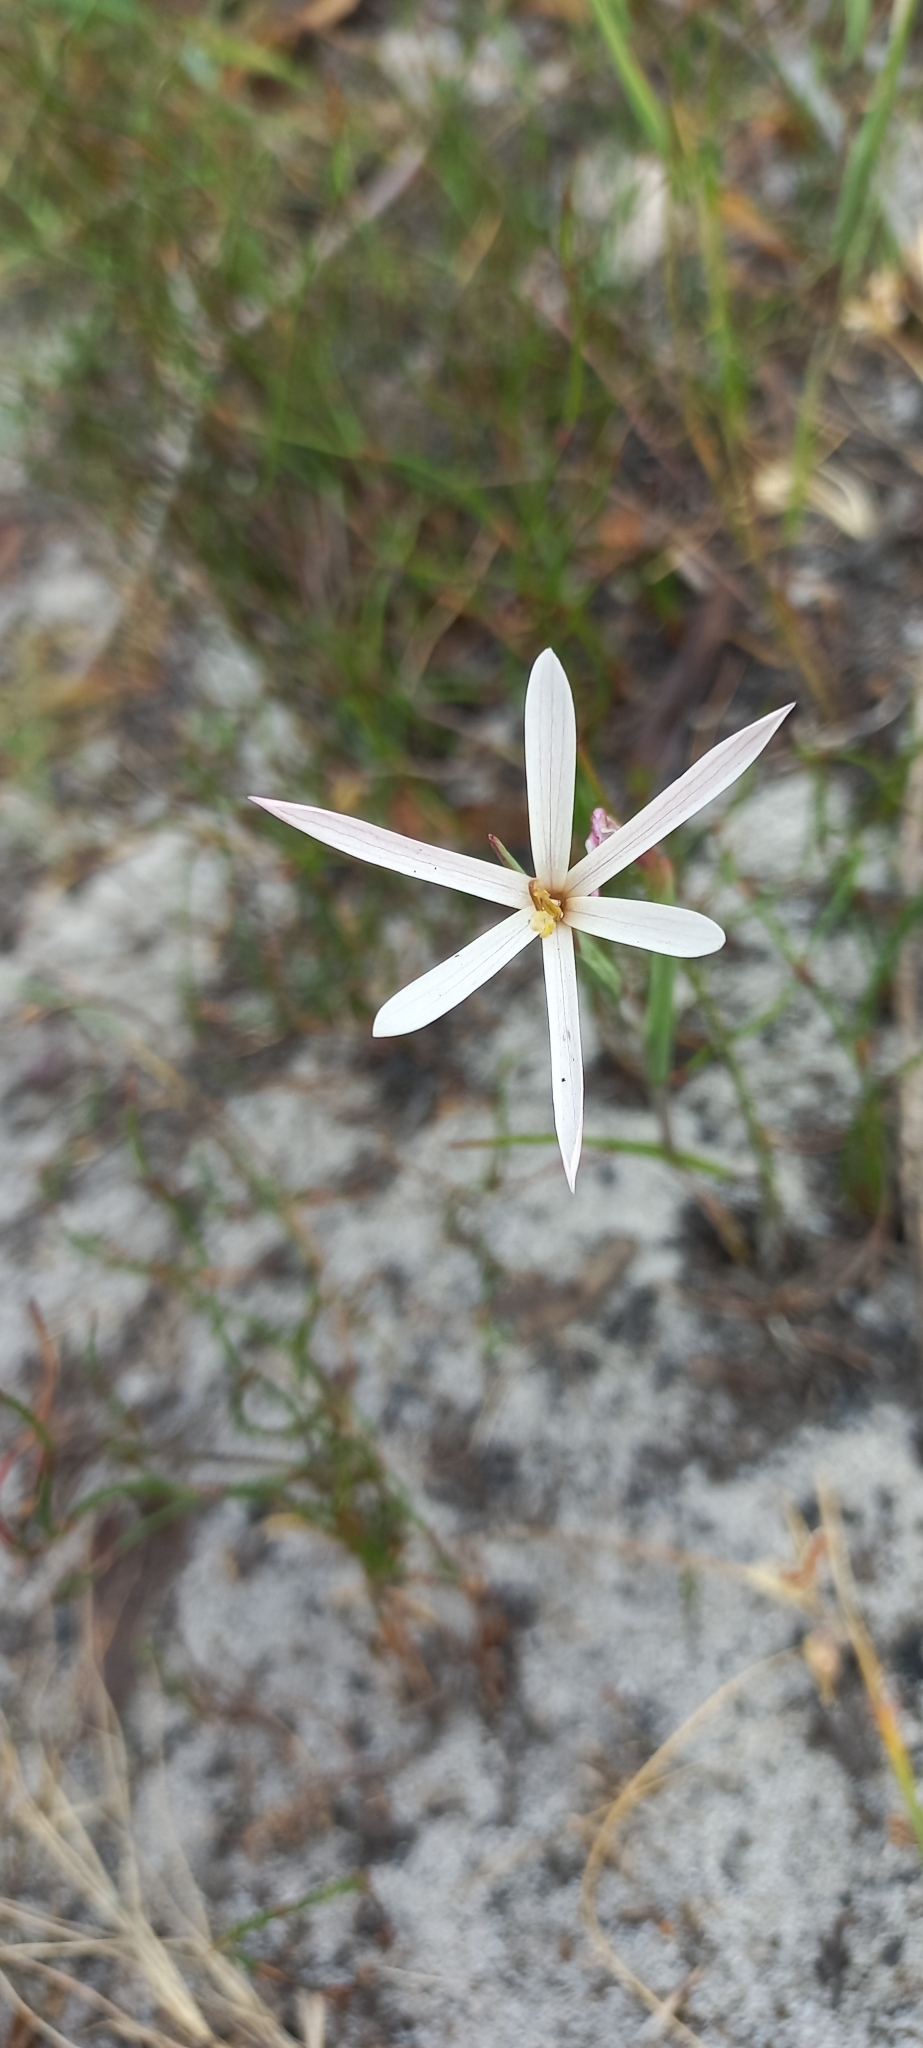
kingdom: Plantae
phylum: Tracheophyta
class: Liliopsida
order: Asparagales
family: Iridaceae
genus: Geissorhiza
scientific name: Geissorhiza tenella
